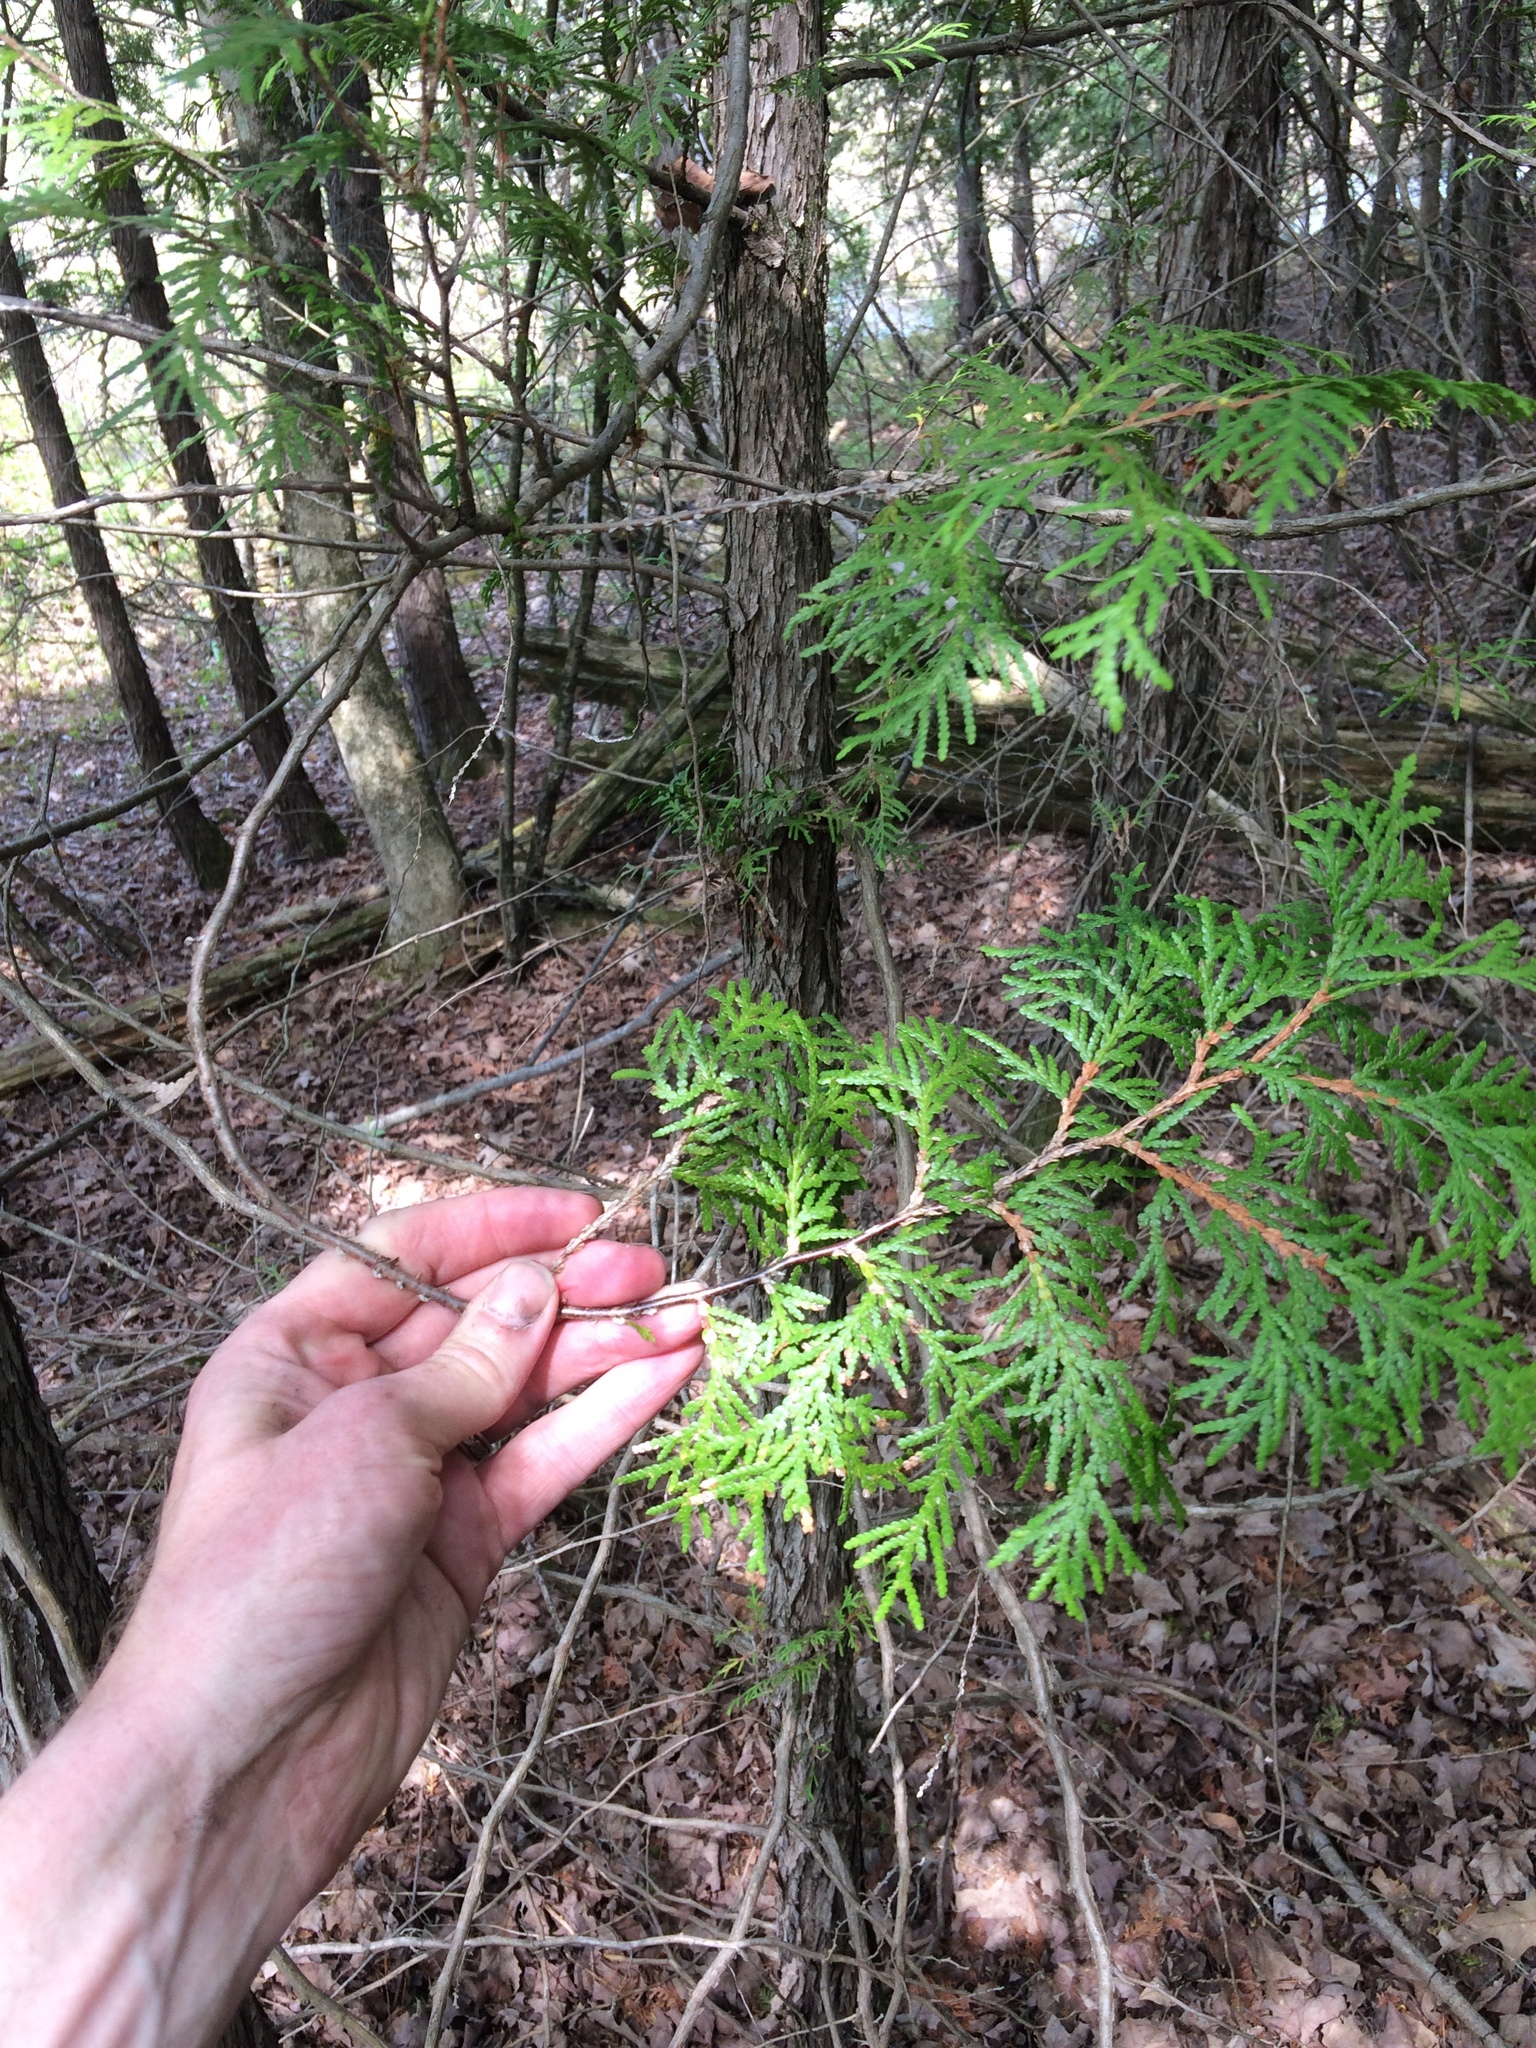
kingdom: Plantae
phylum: Tracheophyta
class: Pinopsida
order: Pinales
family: Cupressaceae
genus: Thuja
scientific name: Thuja occidentalis
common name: Northern white-cedar
